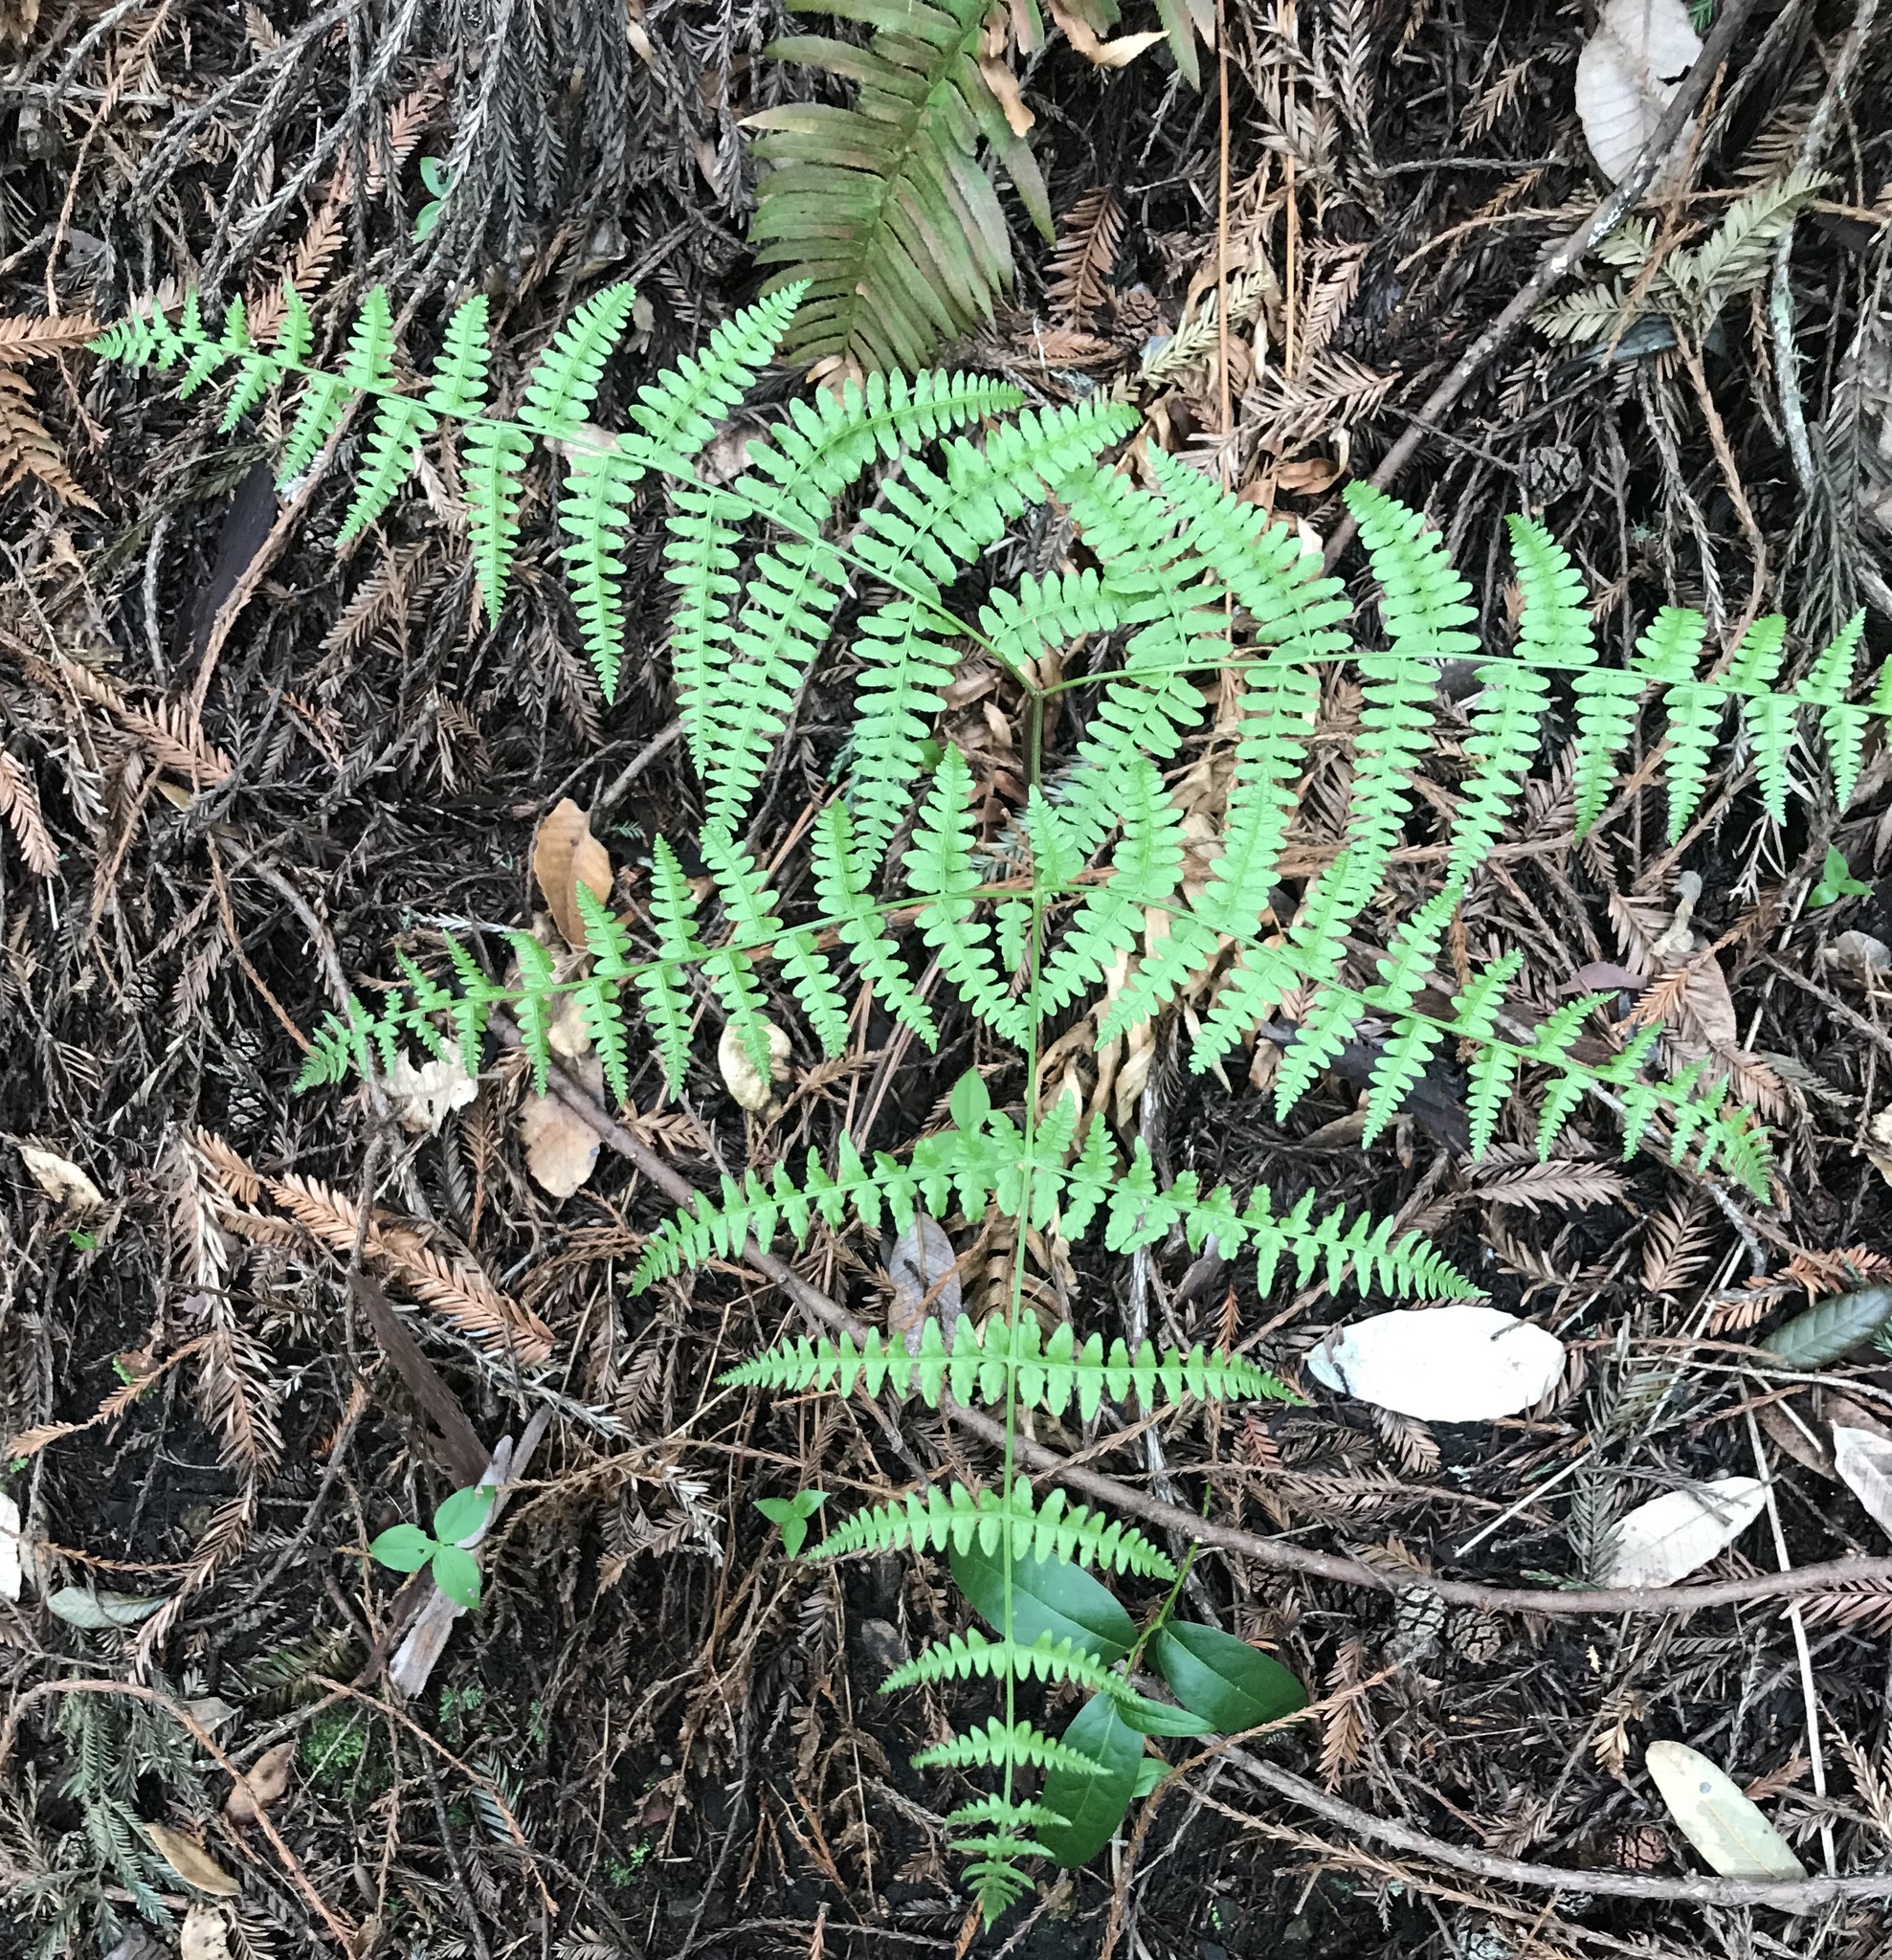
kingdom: Plantae
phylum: Tracheophyta
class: Polypodiopsida
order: Polypodiales
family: Dennstaedtiaceae
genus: Pteridium
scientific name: Pteridium aquilinum
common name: Bracken
